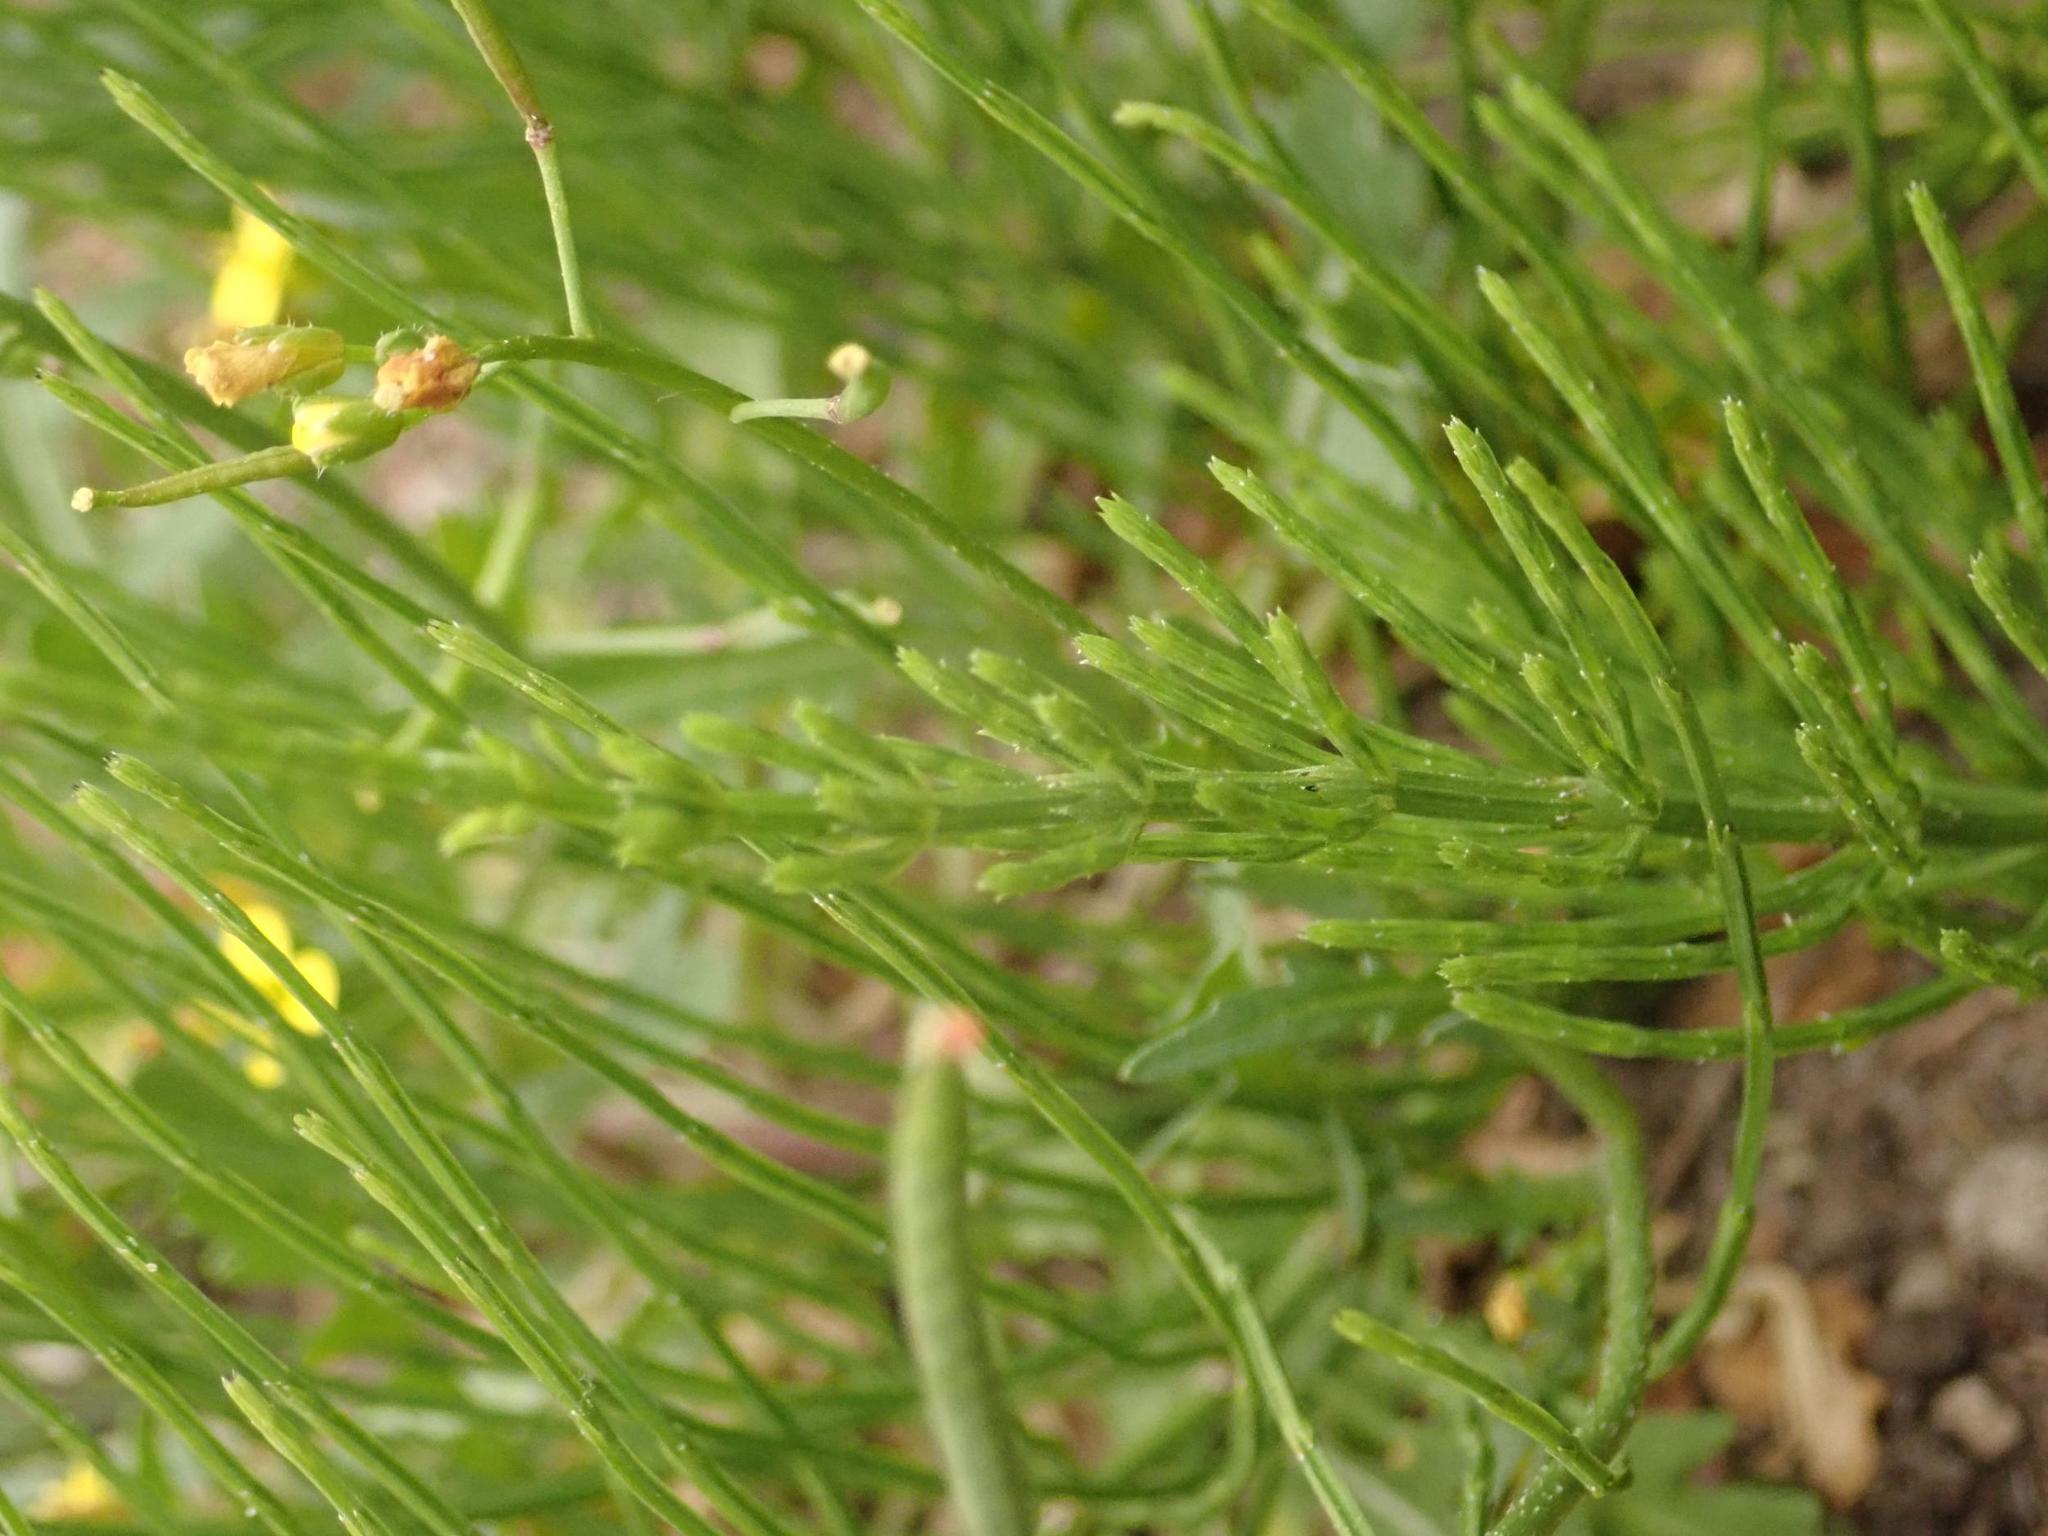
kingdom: Plantae
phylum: Tracheophyta
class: Polypodiopsida
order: Equisetales
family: Equisetaceae
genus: Equisetum
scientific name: Equisetum arvense
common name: Field horsetail
